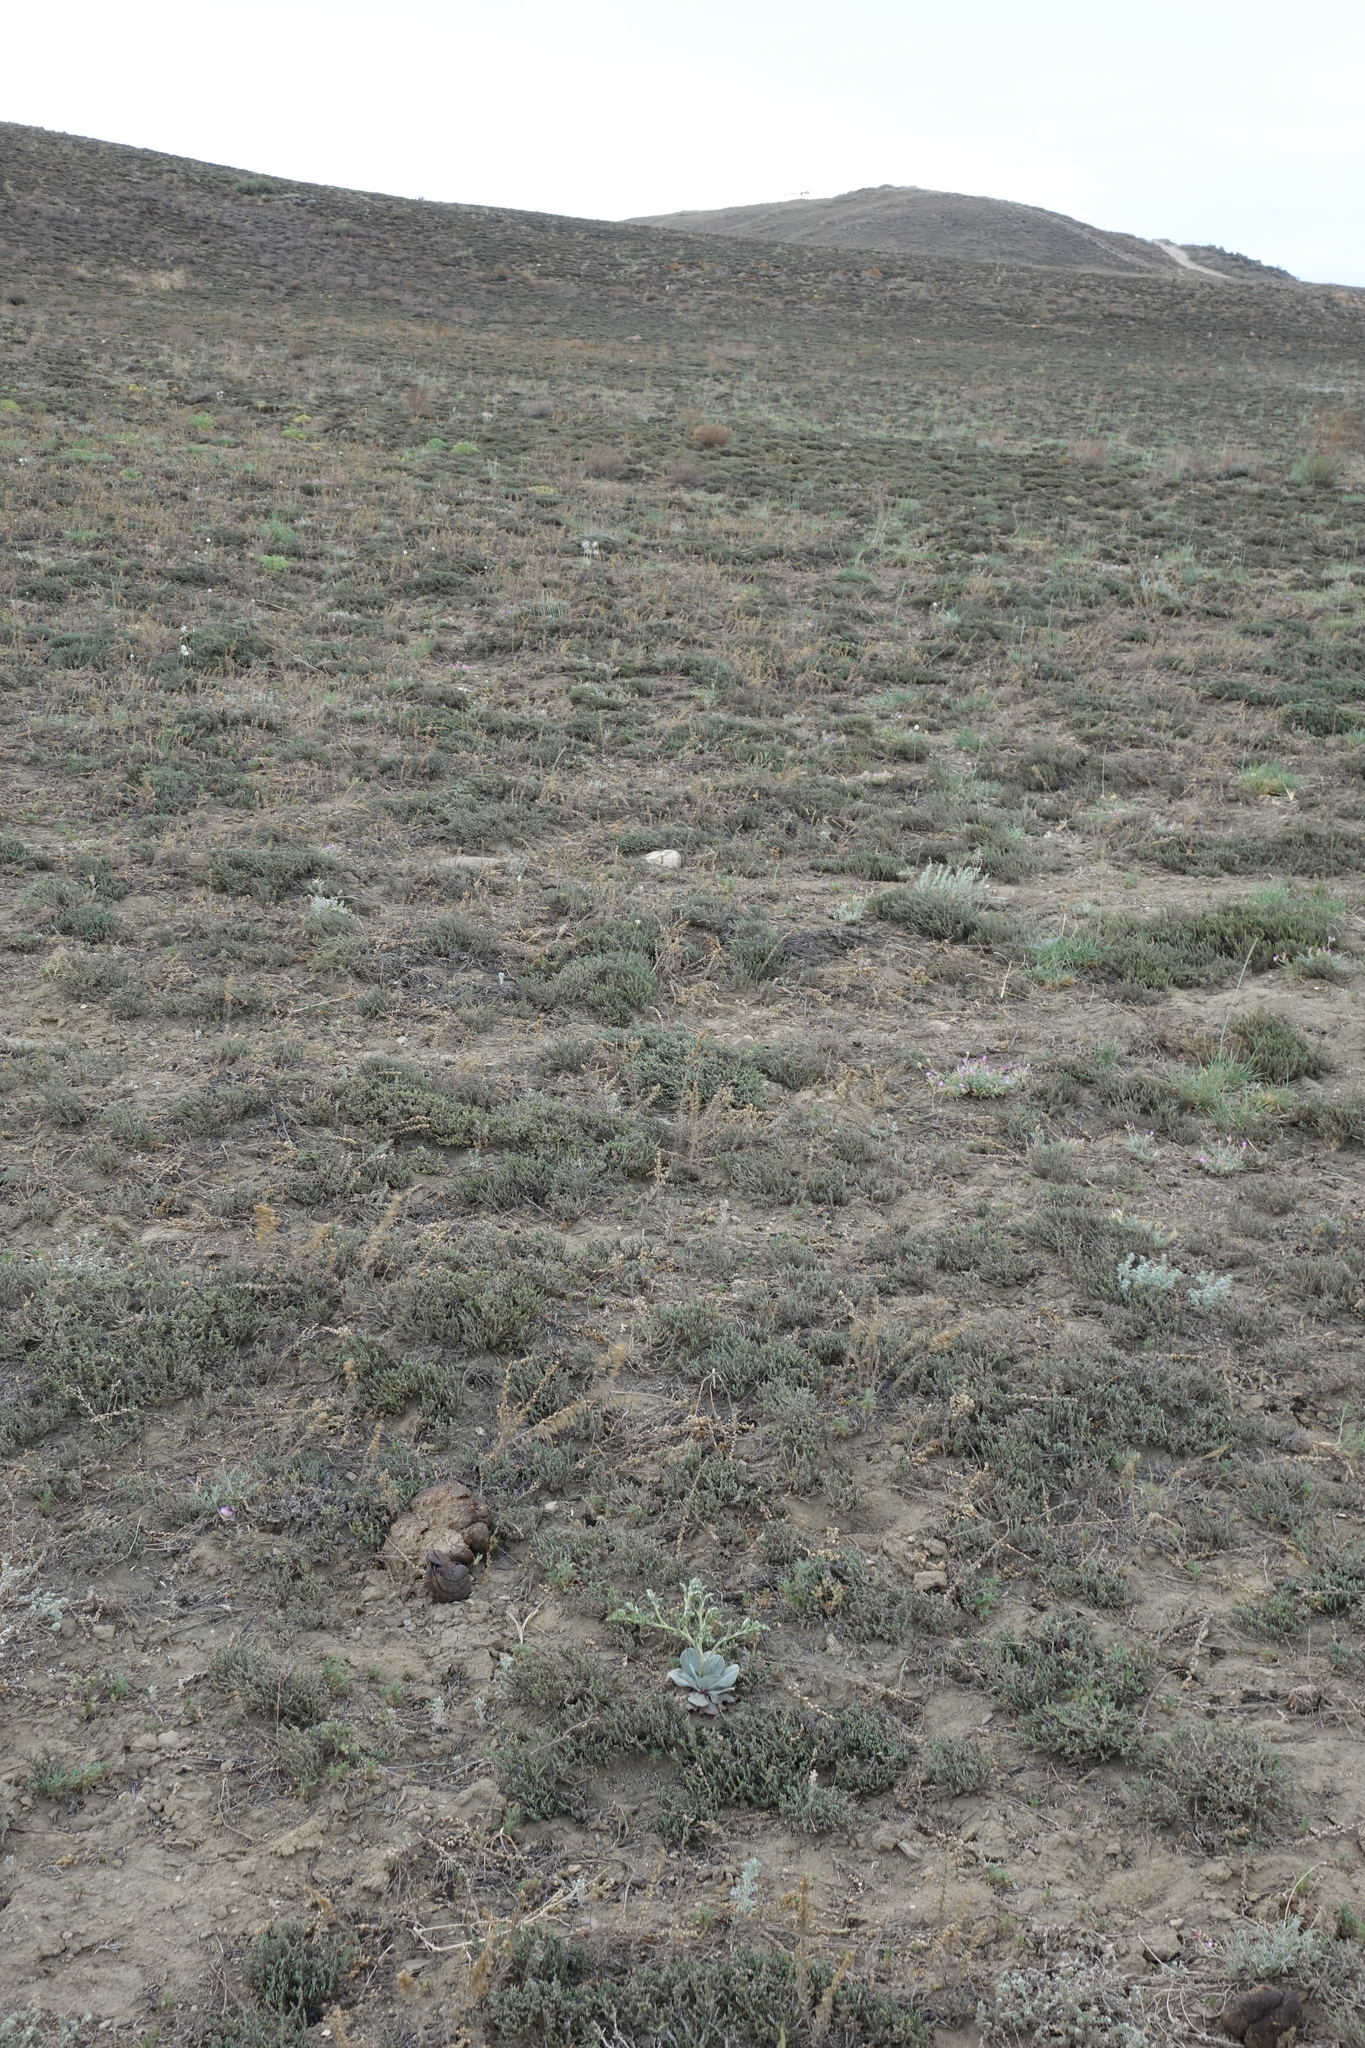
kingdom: Plantae
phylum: Tracheophyta
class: Magnoliopsida
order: Caryophyllales
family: Amaranthaceae
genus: Nanophyton
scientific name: Nanophyton grubovii
